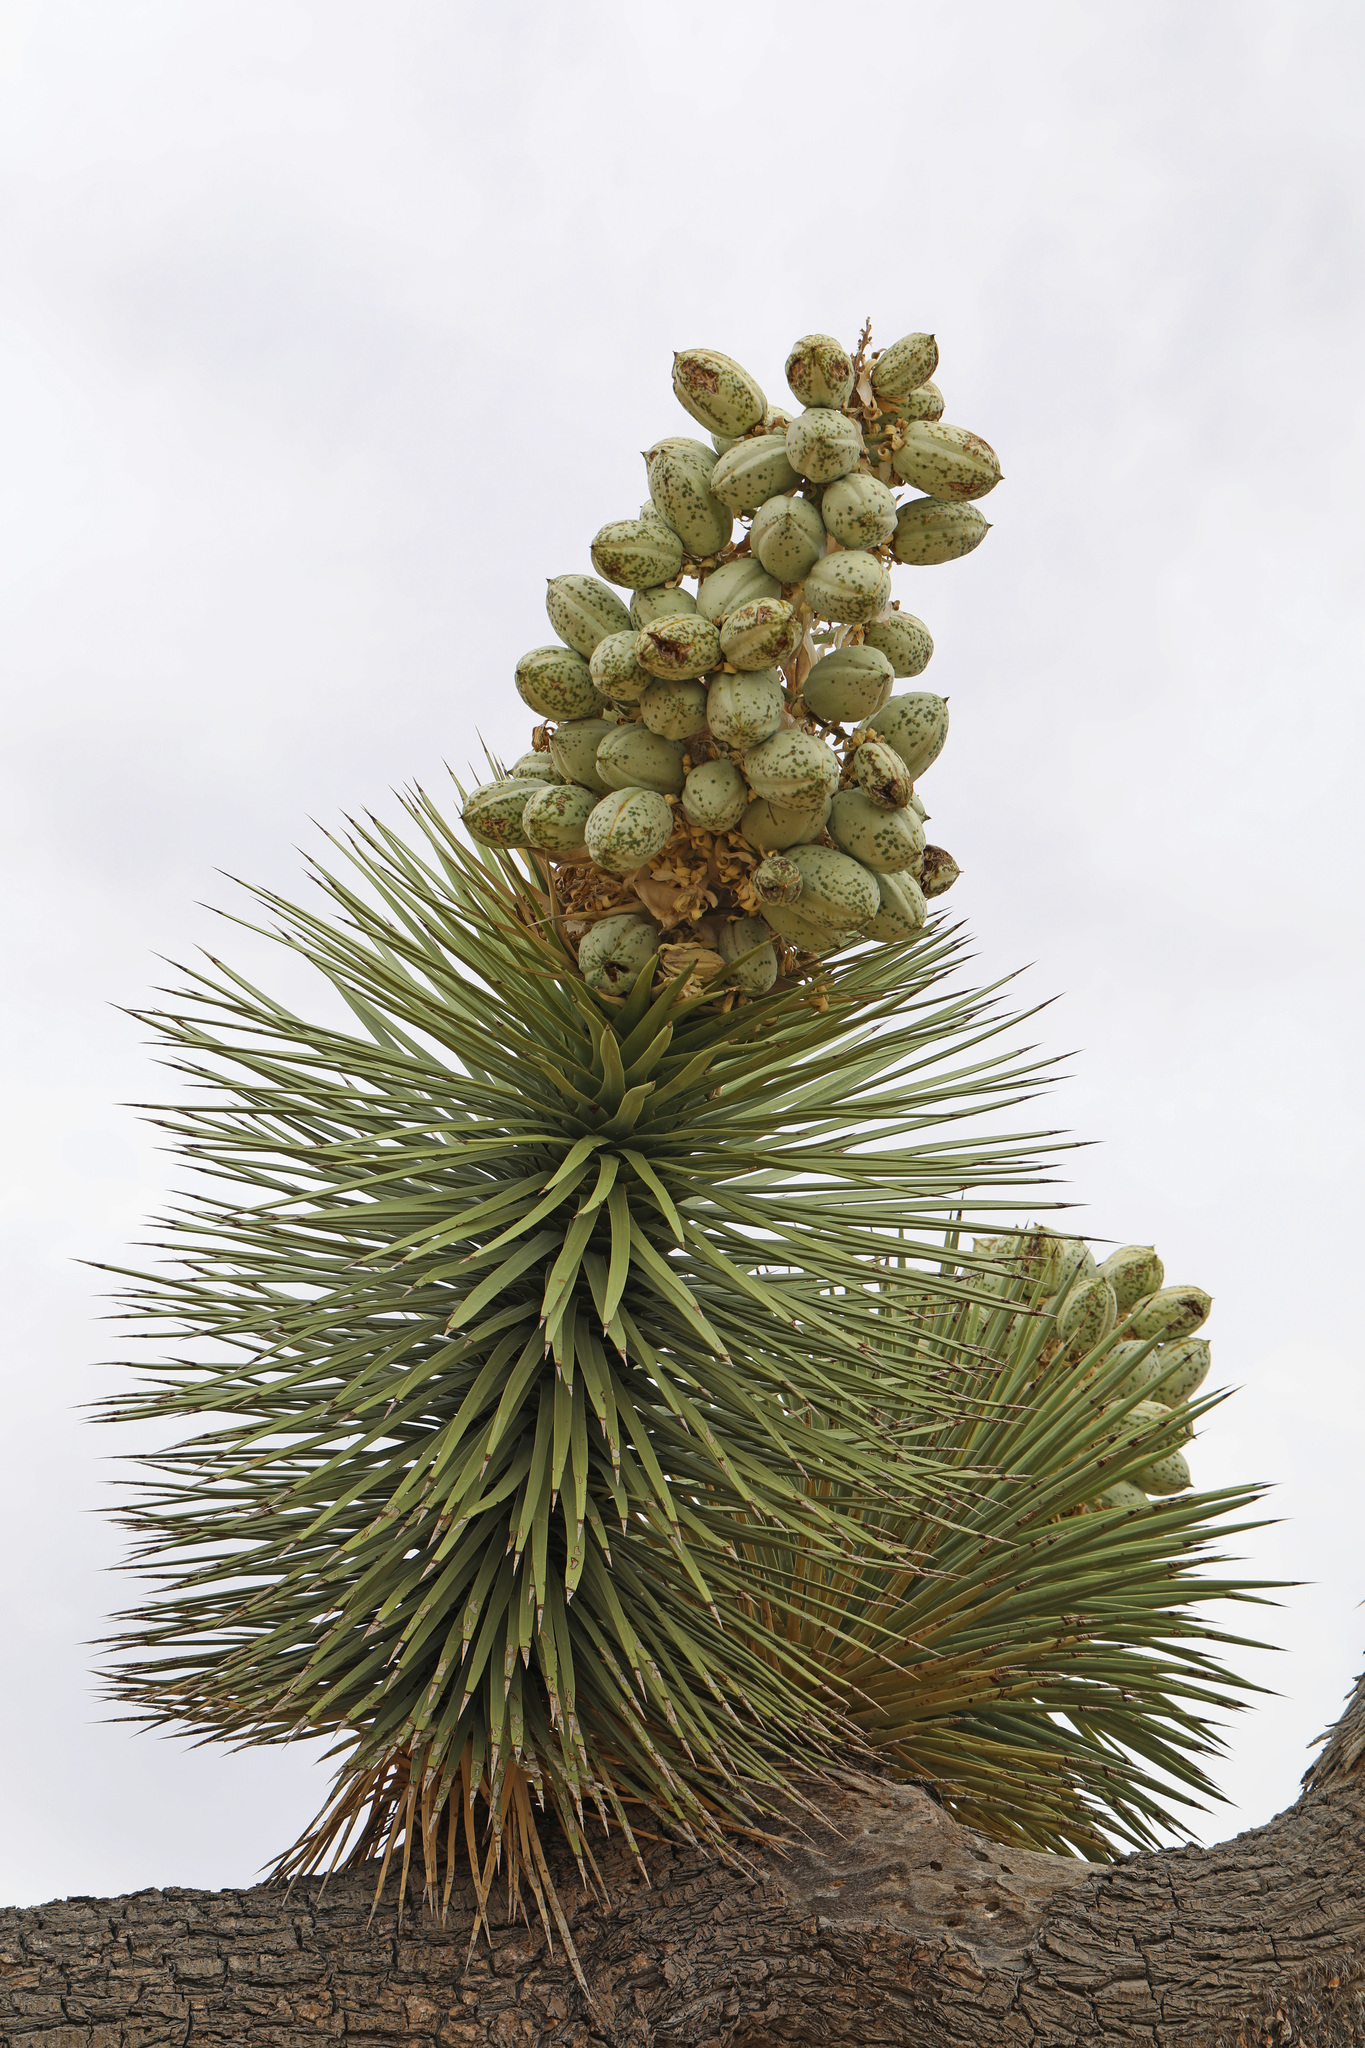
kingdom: Plantae
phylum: Tracheophyta
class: Liliopsida
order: Asparagales
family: Asparagaceae
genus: Yucca
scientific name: Yucca brevifolia
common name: Joshua tree
